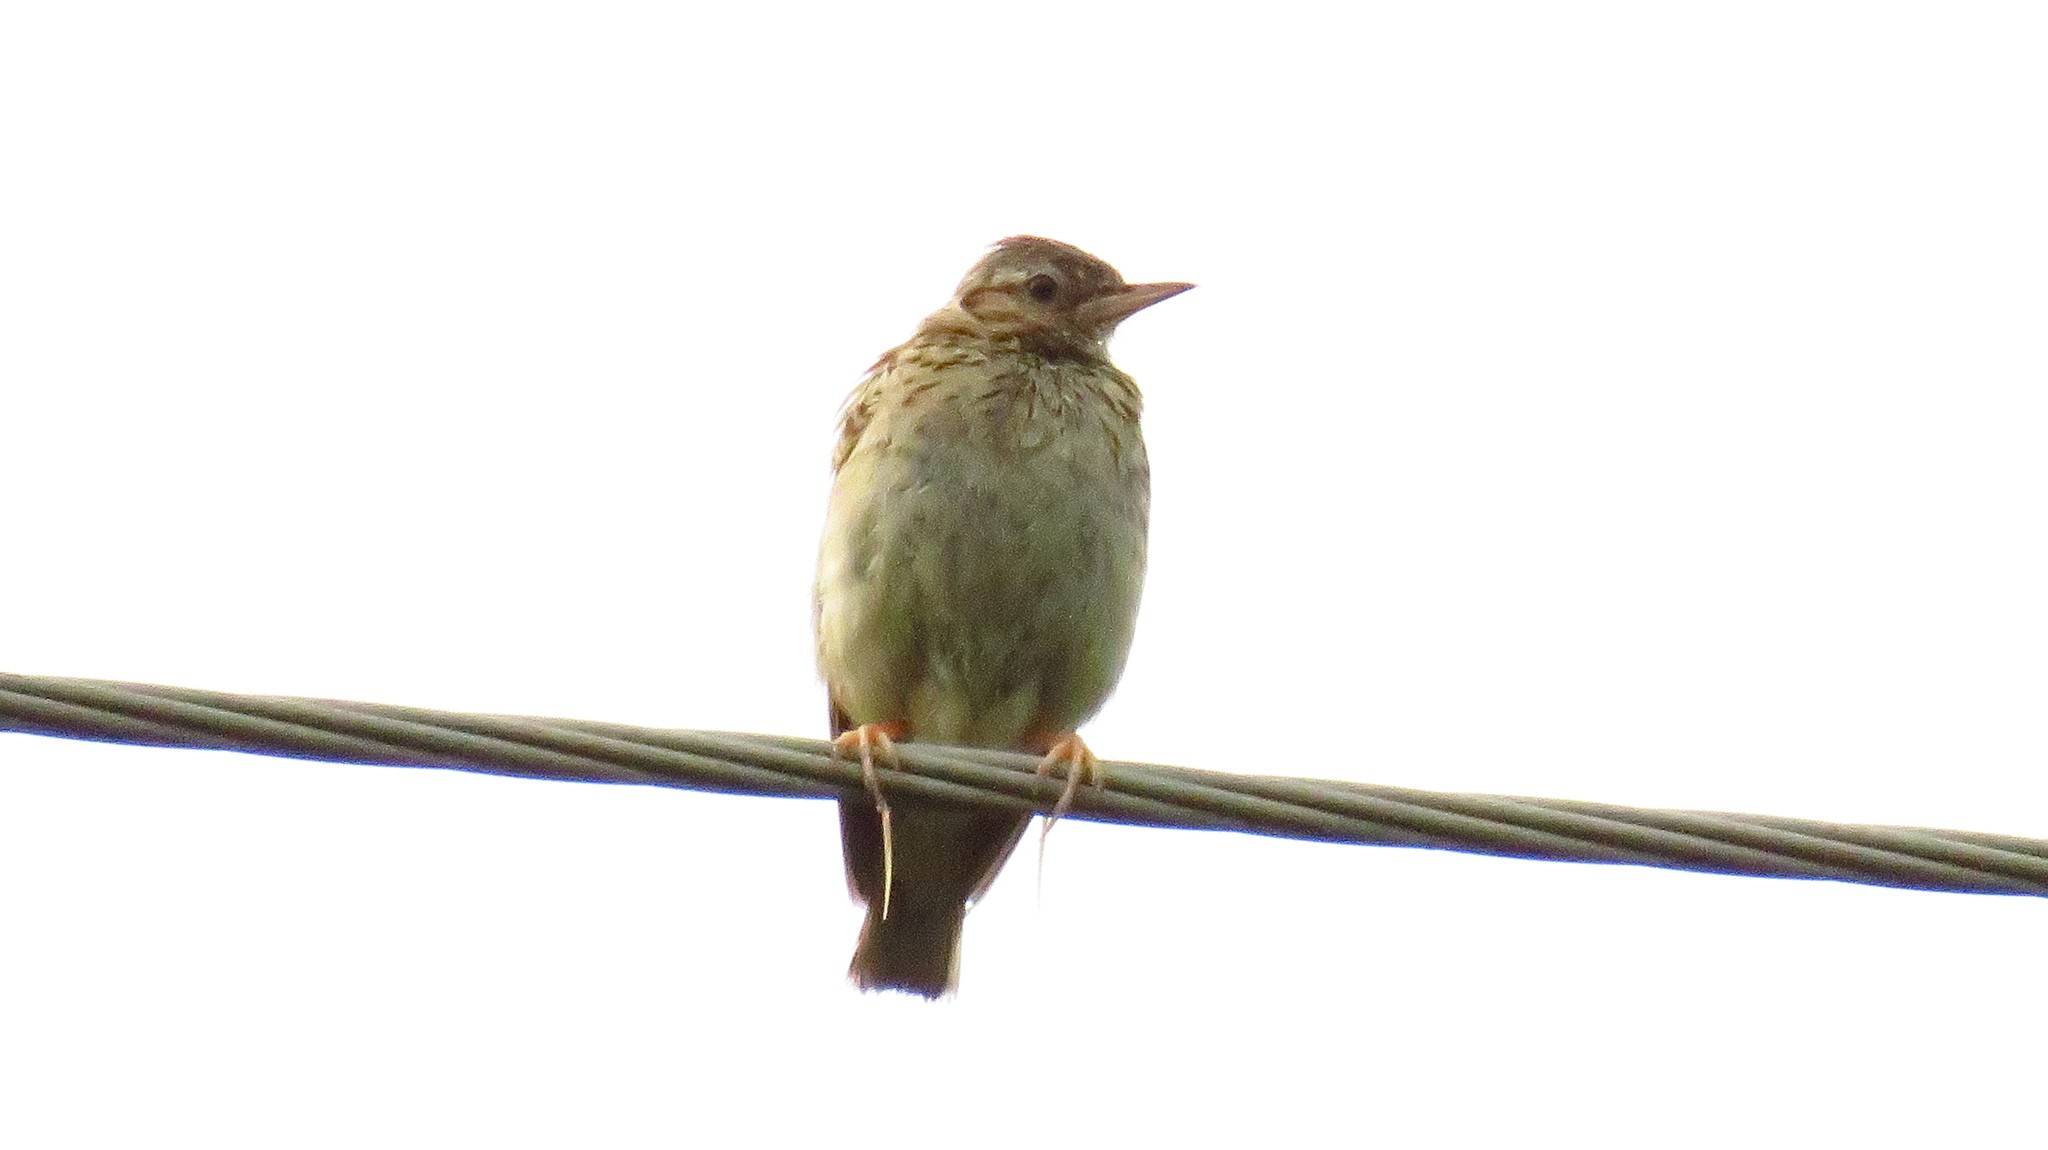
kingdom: Animalia
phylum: Chordata
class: Aves
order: Passeriformes
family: Alaudidae
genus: Lullula
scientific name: Lullula arborea
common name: Woodlark
